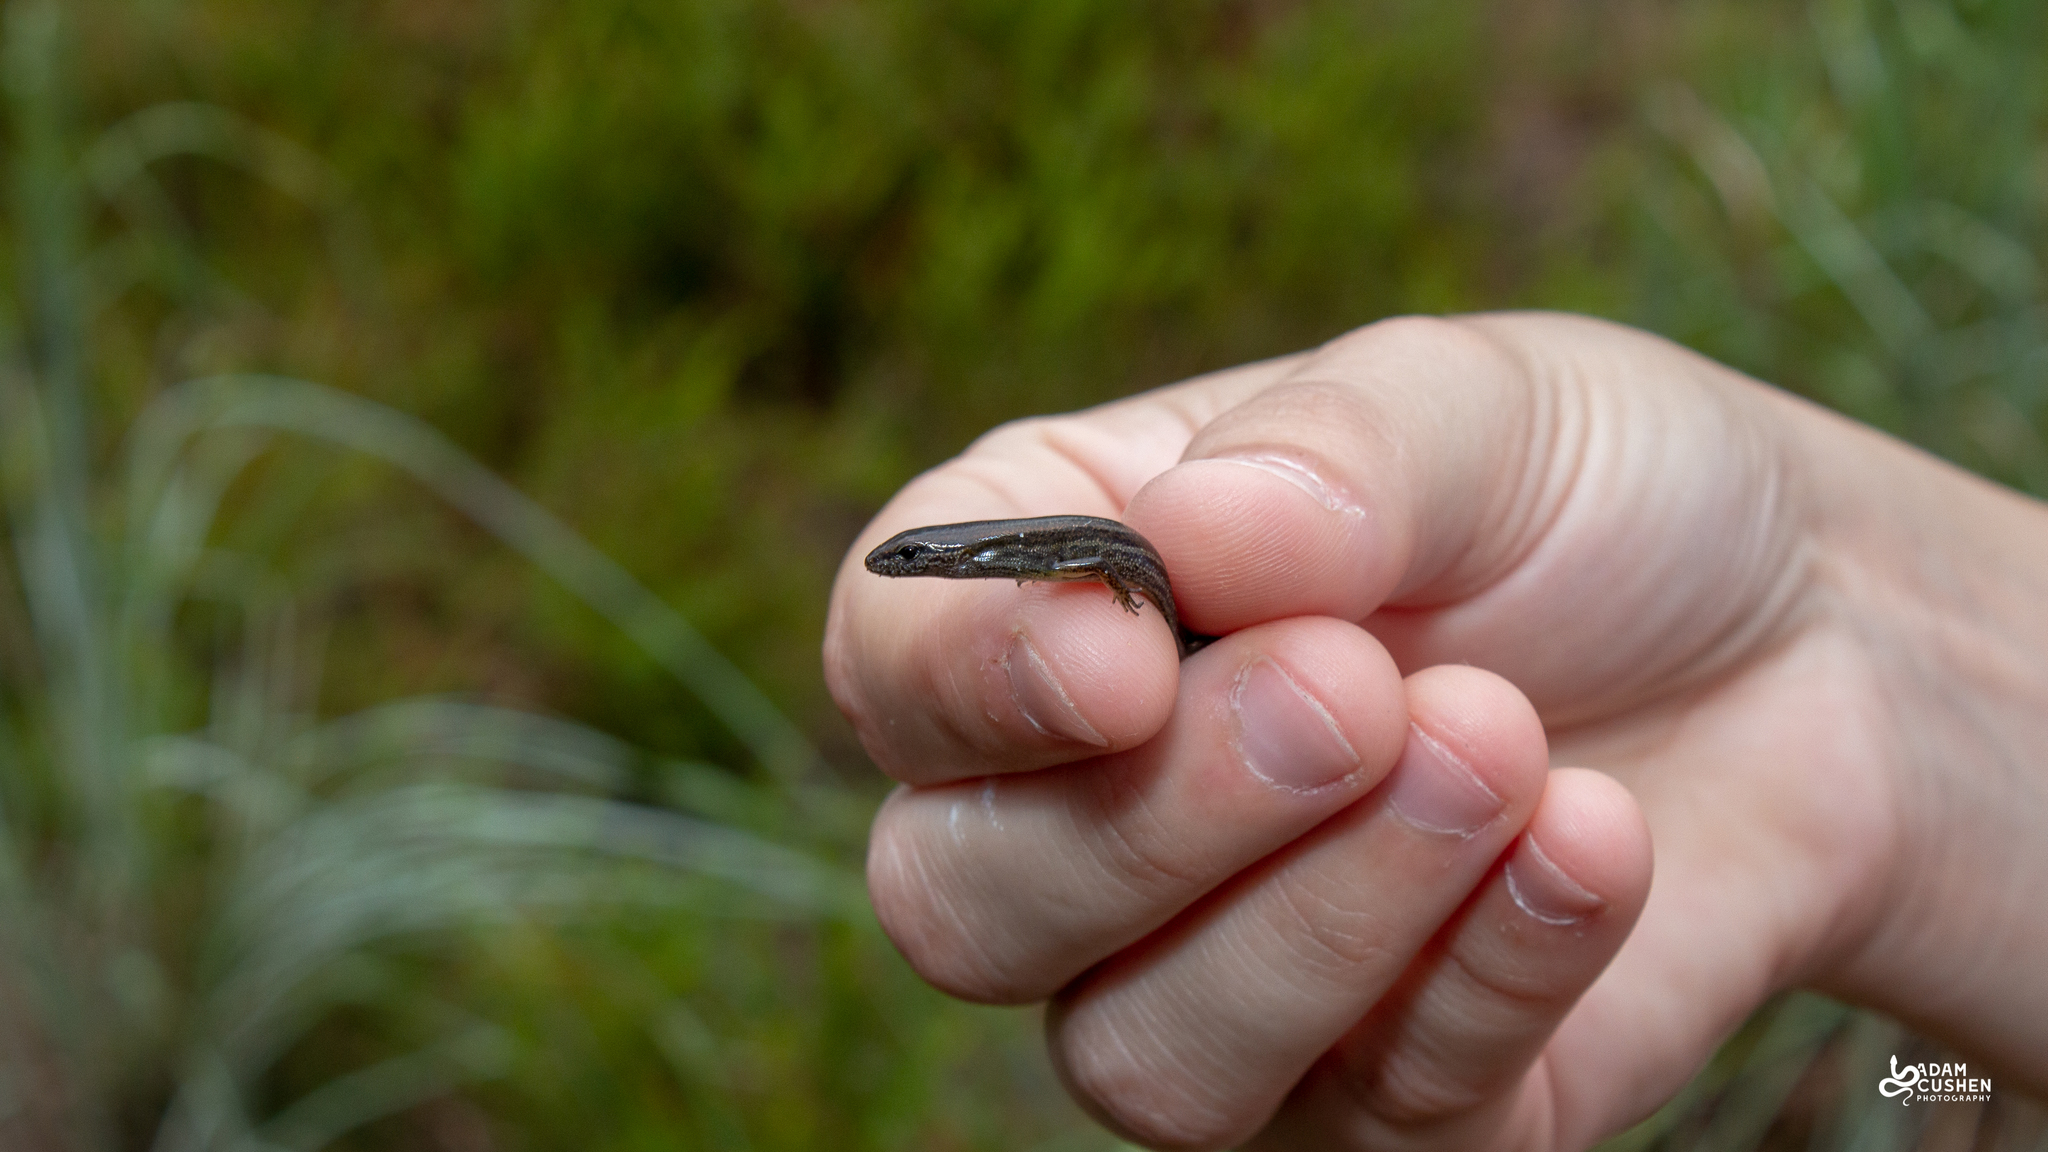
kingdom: Animalia
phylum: Chordata
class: Squamata
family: Scincidae
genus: Scincella
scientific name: Scincella lateralis
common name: Ground skink
